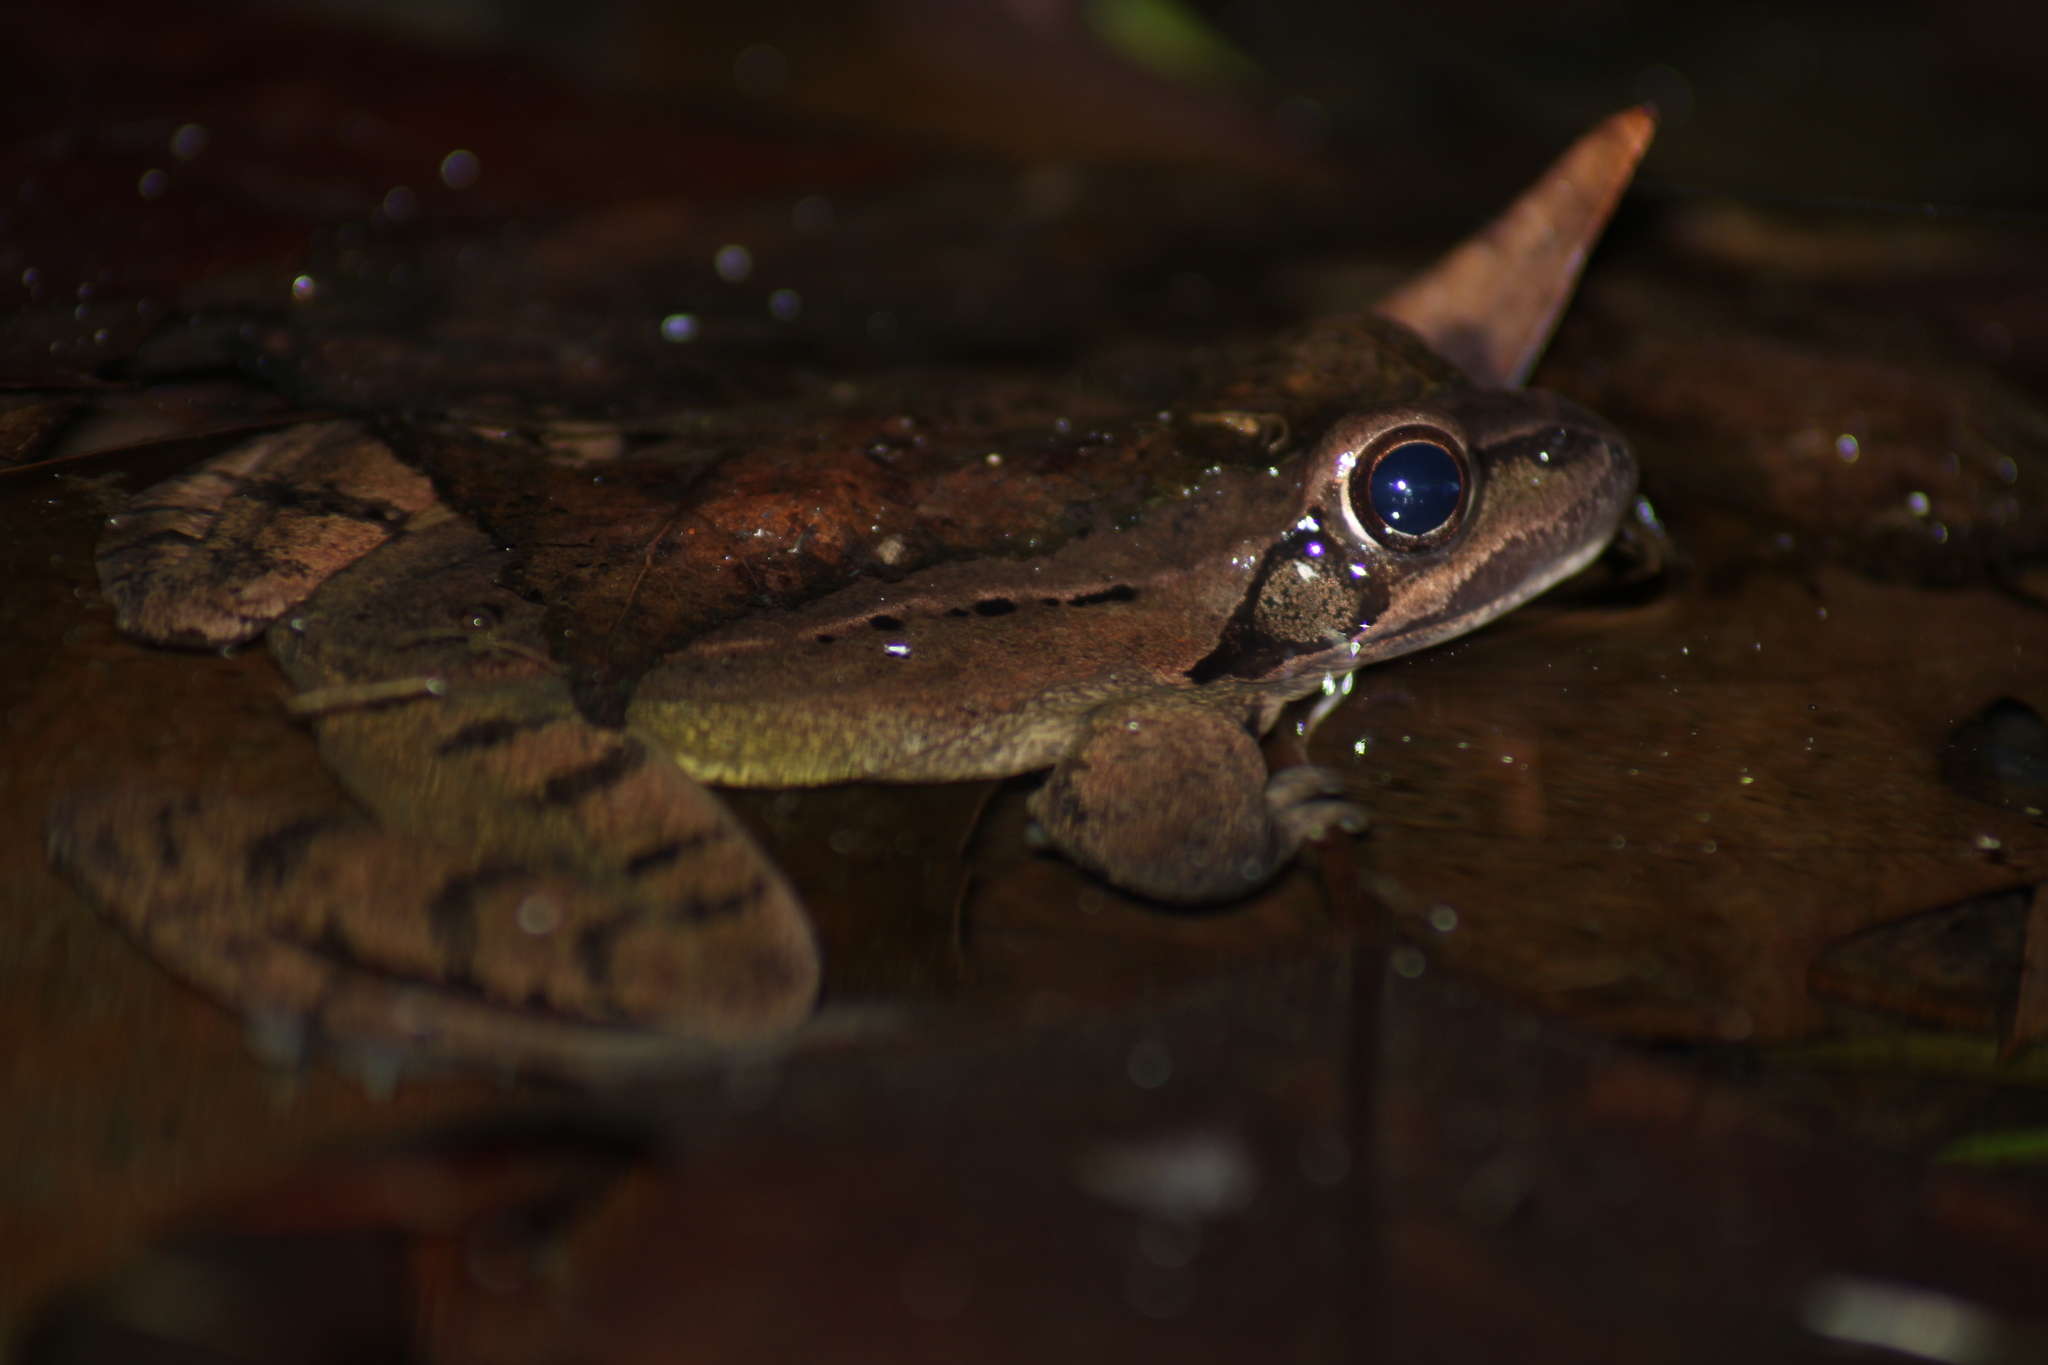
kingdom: Animalia
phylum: Chordata
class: Amphibia
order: Anura
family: Ranidae
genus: Rana
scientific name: Rana dalmatina
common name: Agile frog
